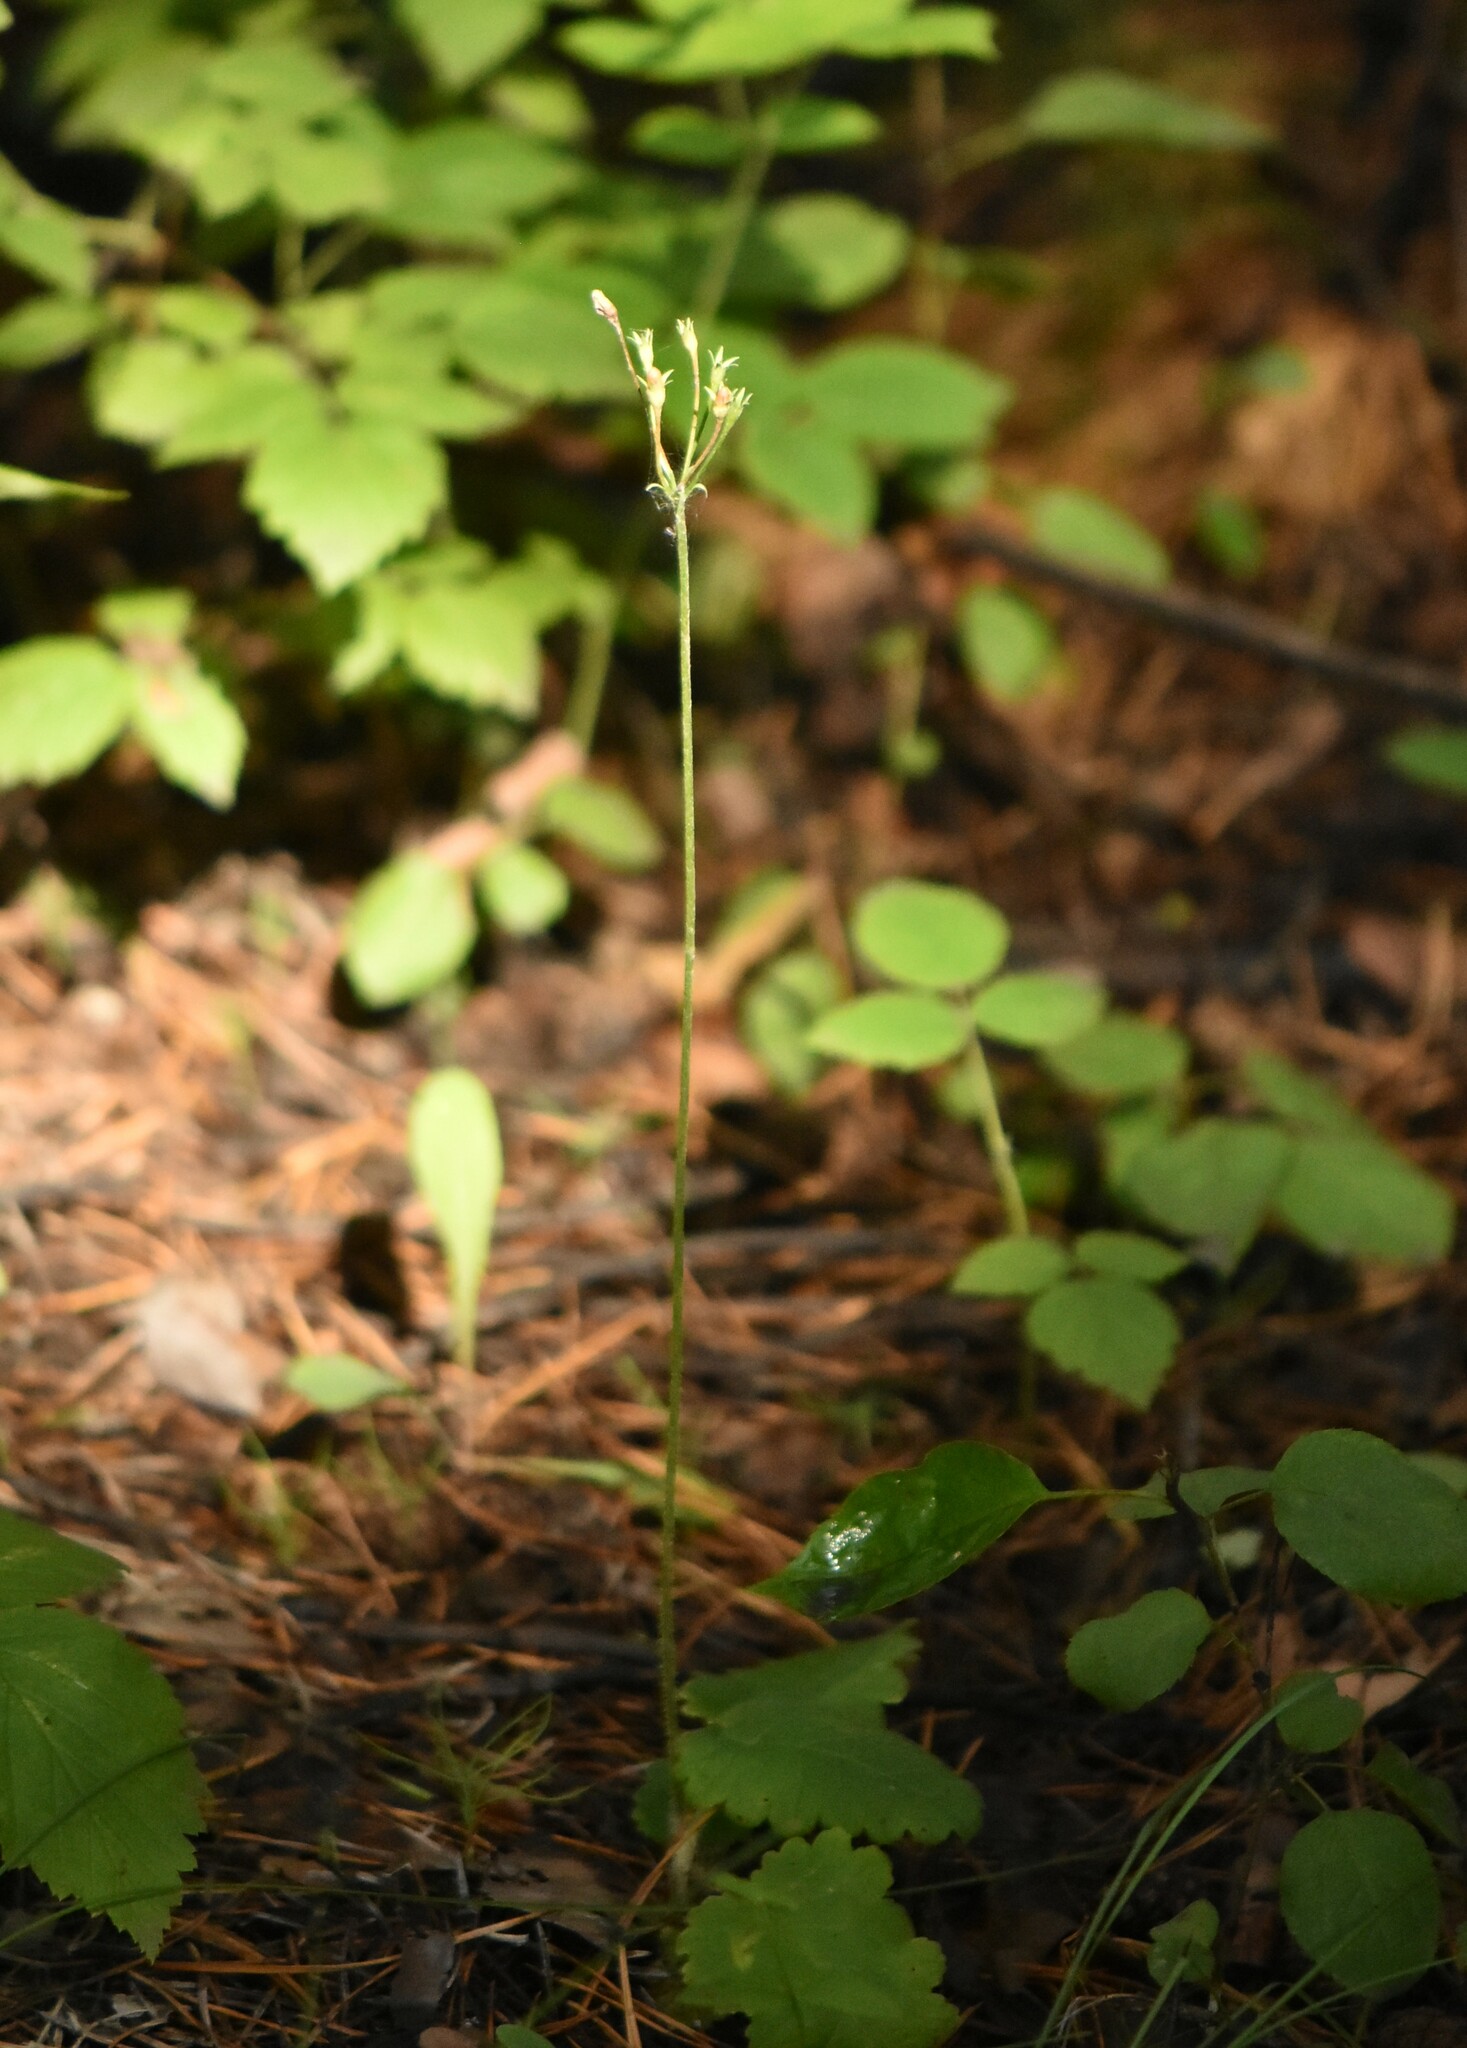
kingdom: Plantae
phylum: Tracheophyta
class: Magnoliopsida
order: Ericales
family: Primulaceae
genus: Primula
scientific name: Primula cortusoides
